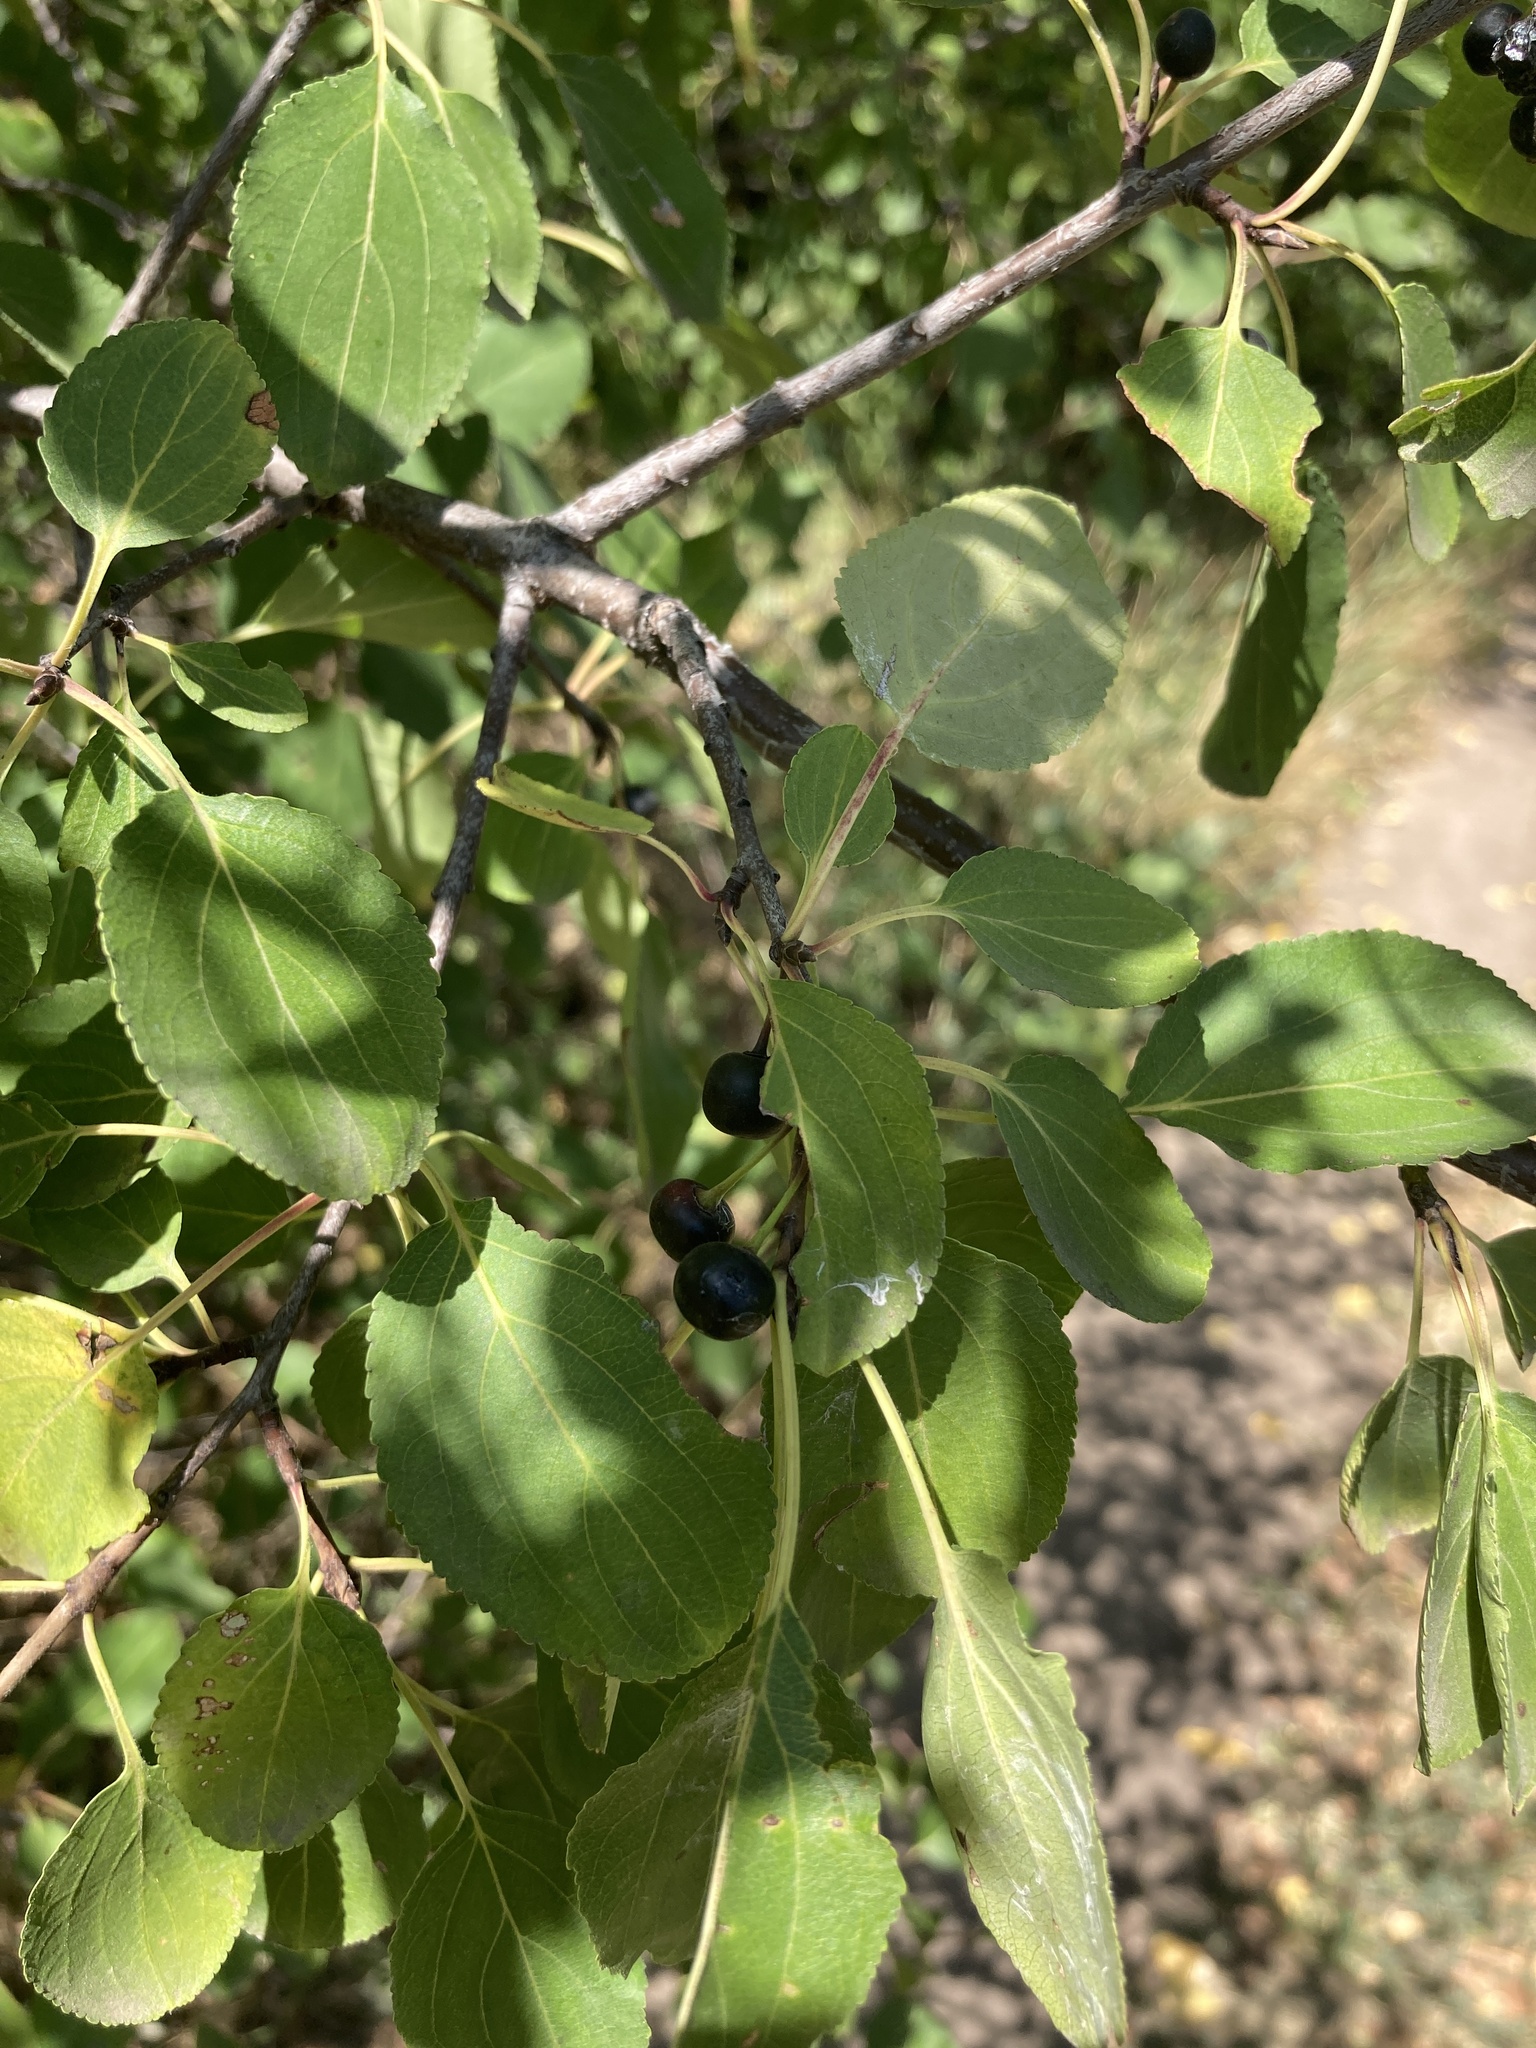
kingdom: Plantae
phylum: Tracheophyta
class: Magnoliopsida
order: Rosales
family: Rhamnaceae
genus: Rhamnus
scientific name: Rhamnus cathartica
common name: Common buckthorn
